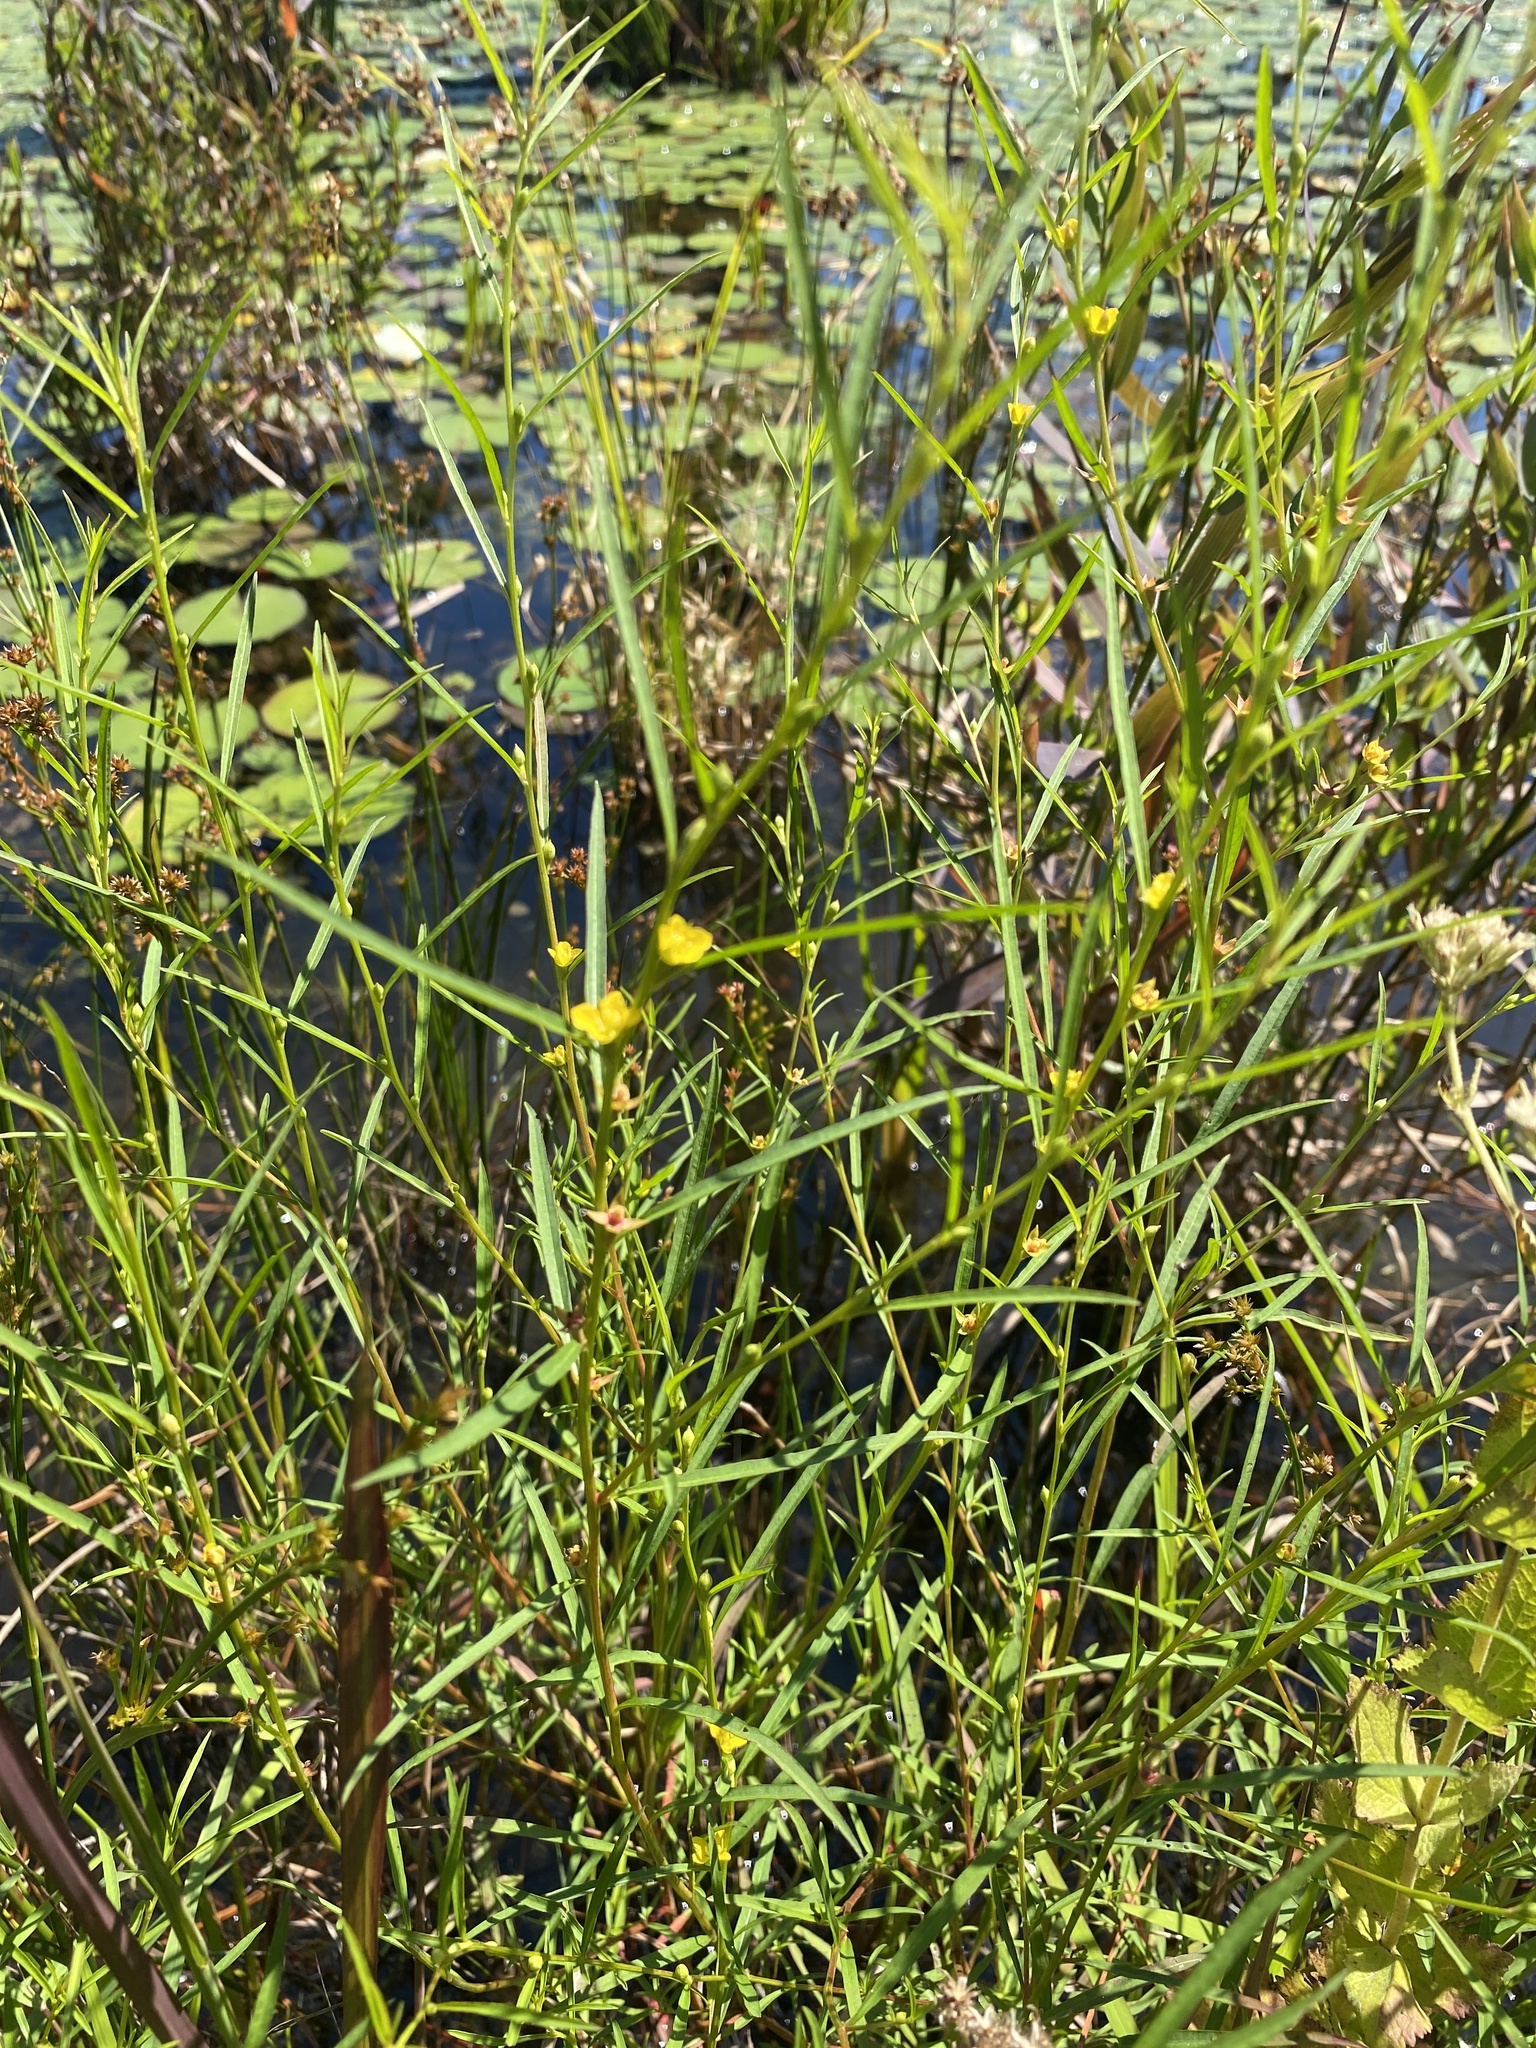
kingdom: Plantae
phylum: Tracheophyta
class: Magnoliopsida
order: Myrtales
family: Onagraceae
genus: Ludwigia
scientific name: Ludwigia linearis
